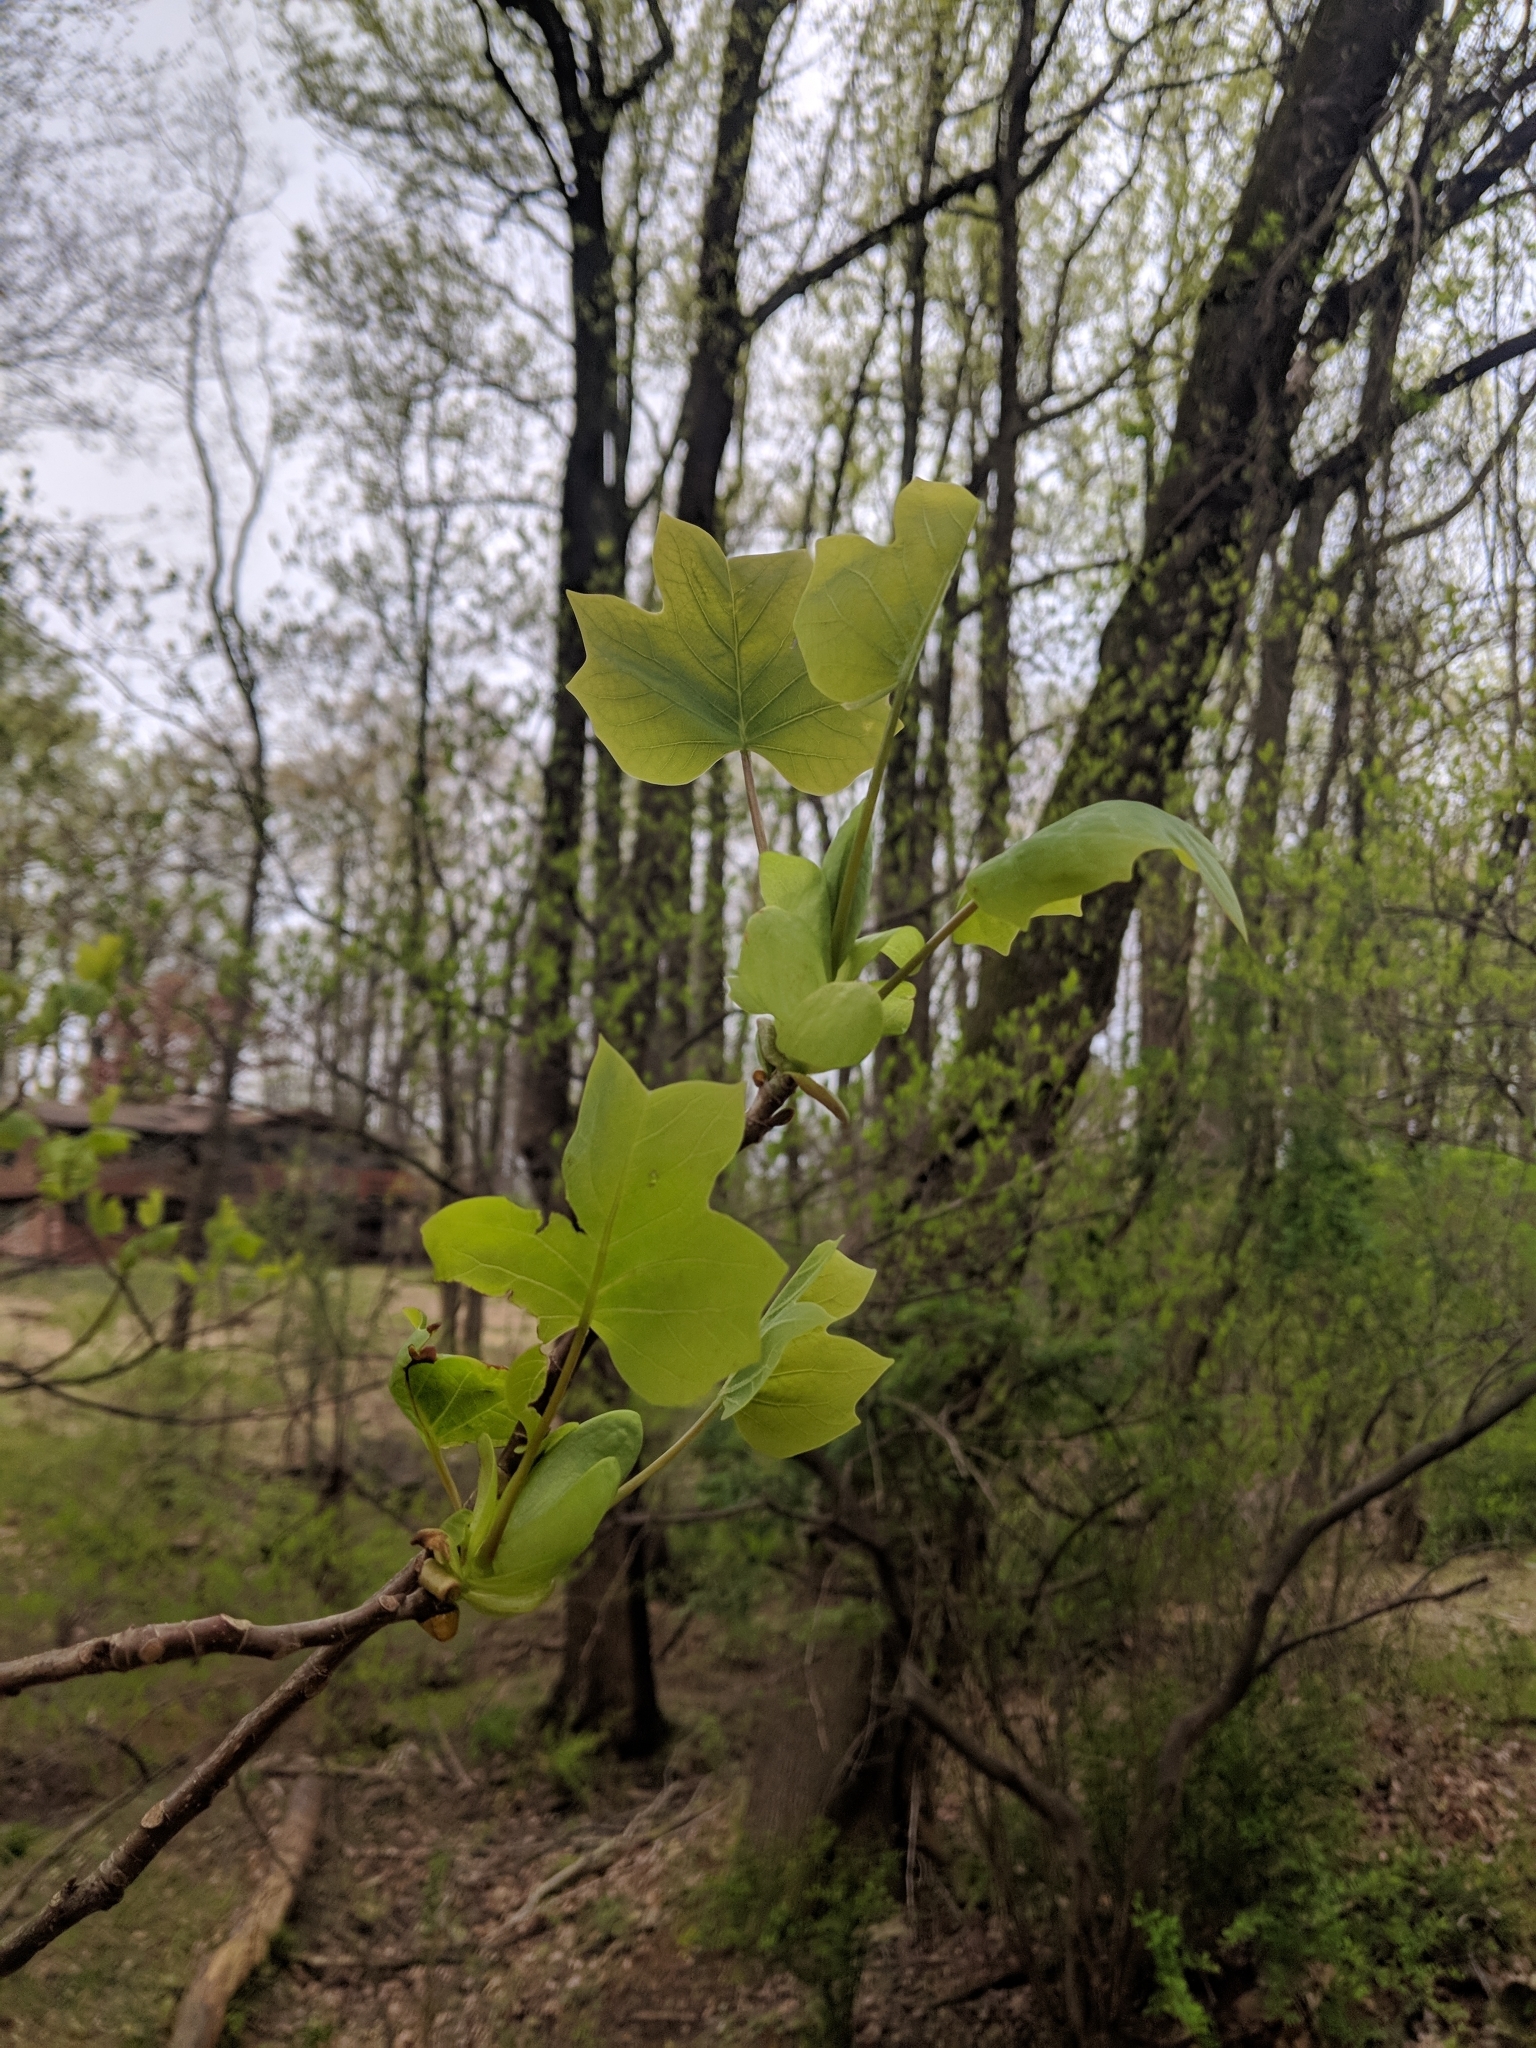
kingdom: Plantae
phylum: Tracheophyta
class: Magnoliopsida
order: Magnoliales
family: Magnoliaceae
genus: Liriodendron
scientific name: Liriodendron tulipifera
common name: Tulip tree
